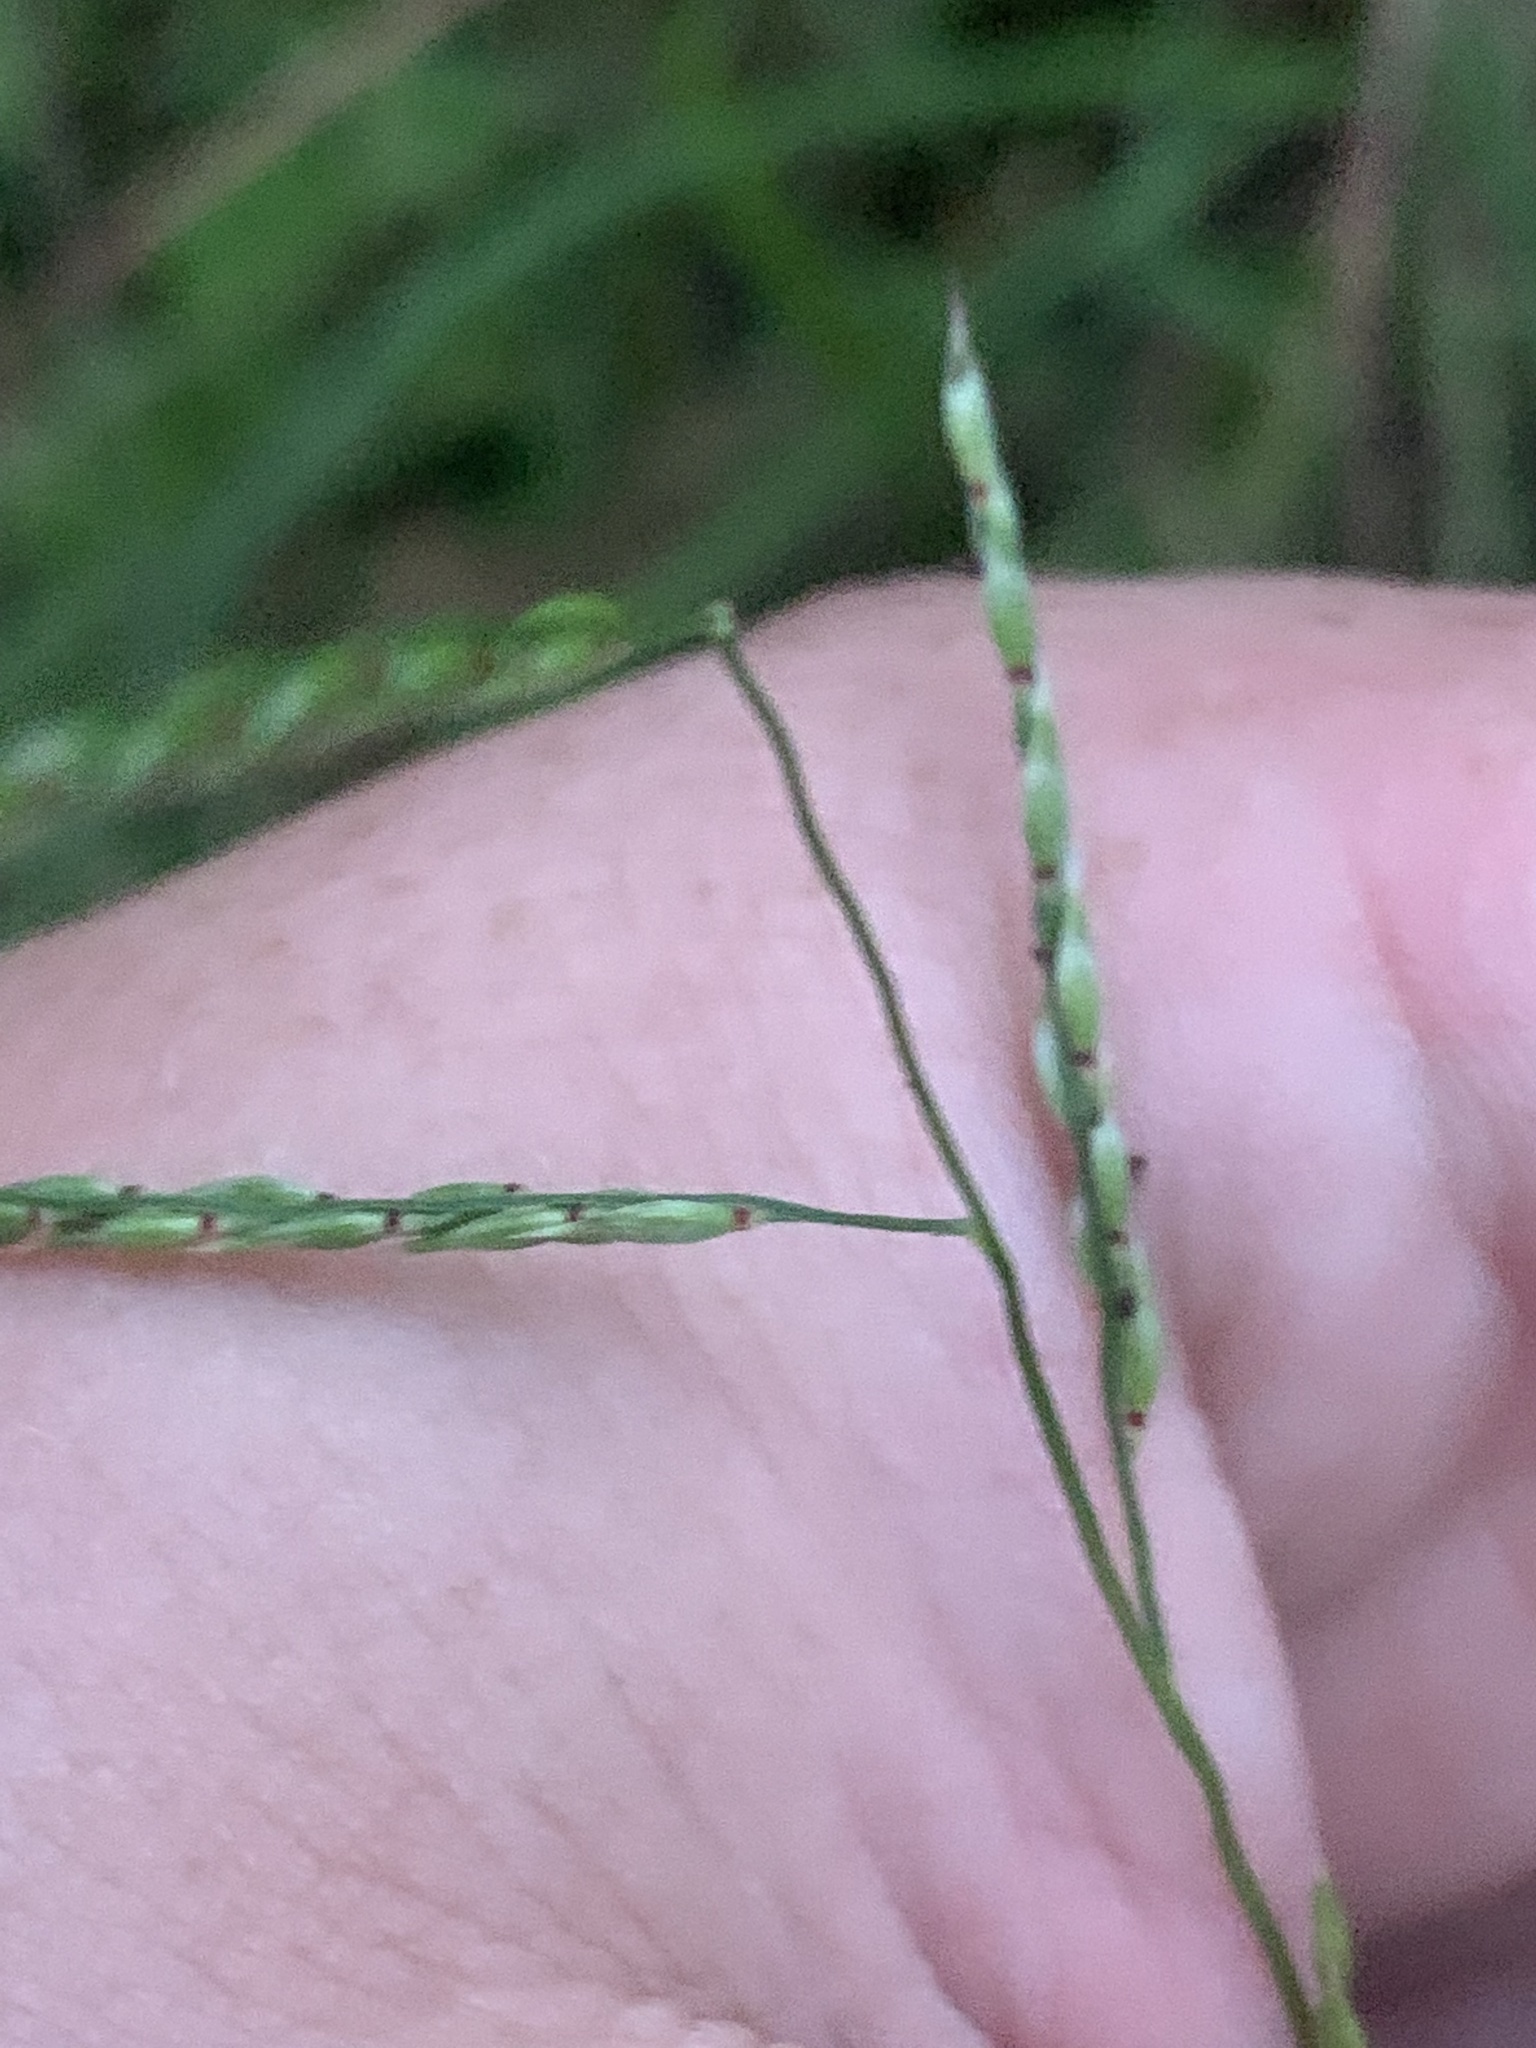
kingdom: Plantae
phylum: Tracheophyta
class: Liliopsida
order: Poales
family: Poaceae
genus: Eriochloa
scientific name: Eriochloa pseudoacrotricha
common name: Perennial cup-grass
